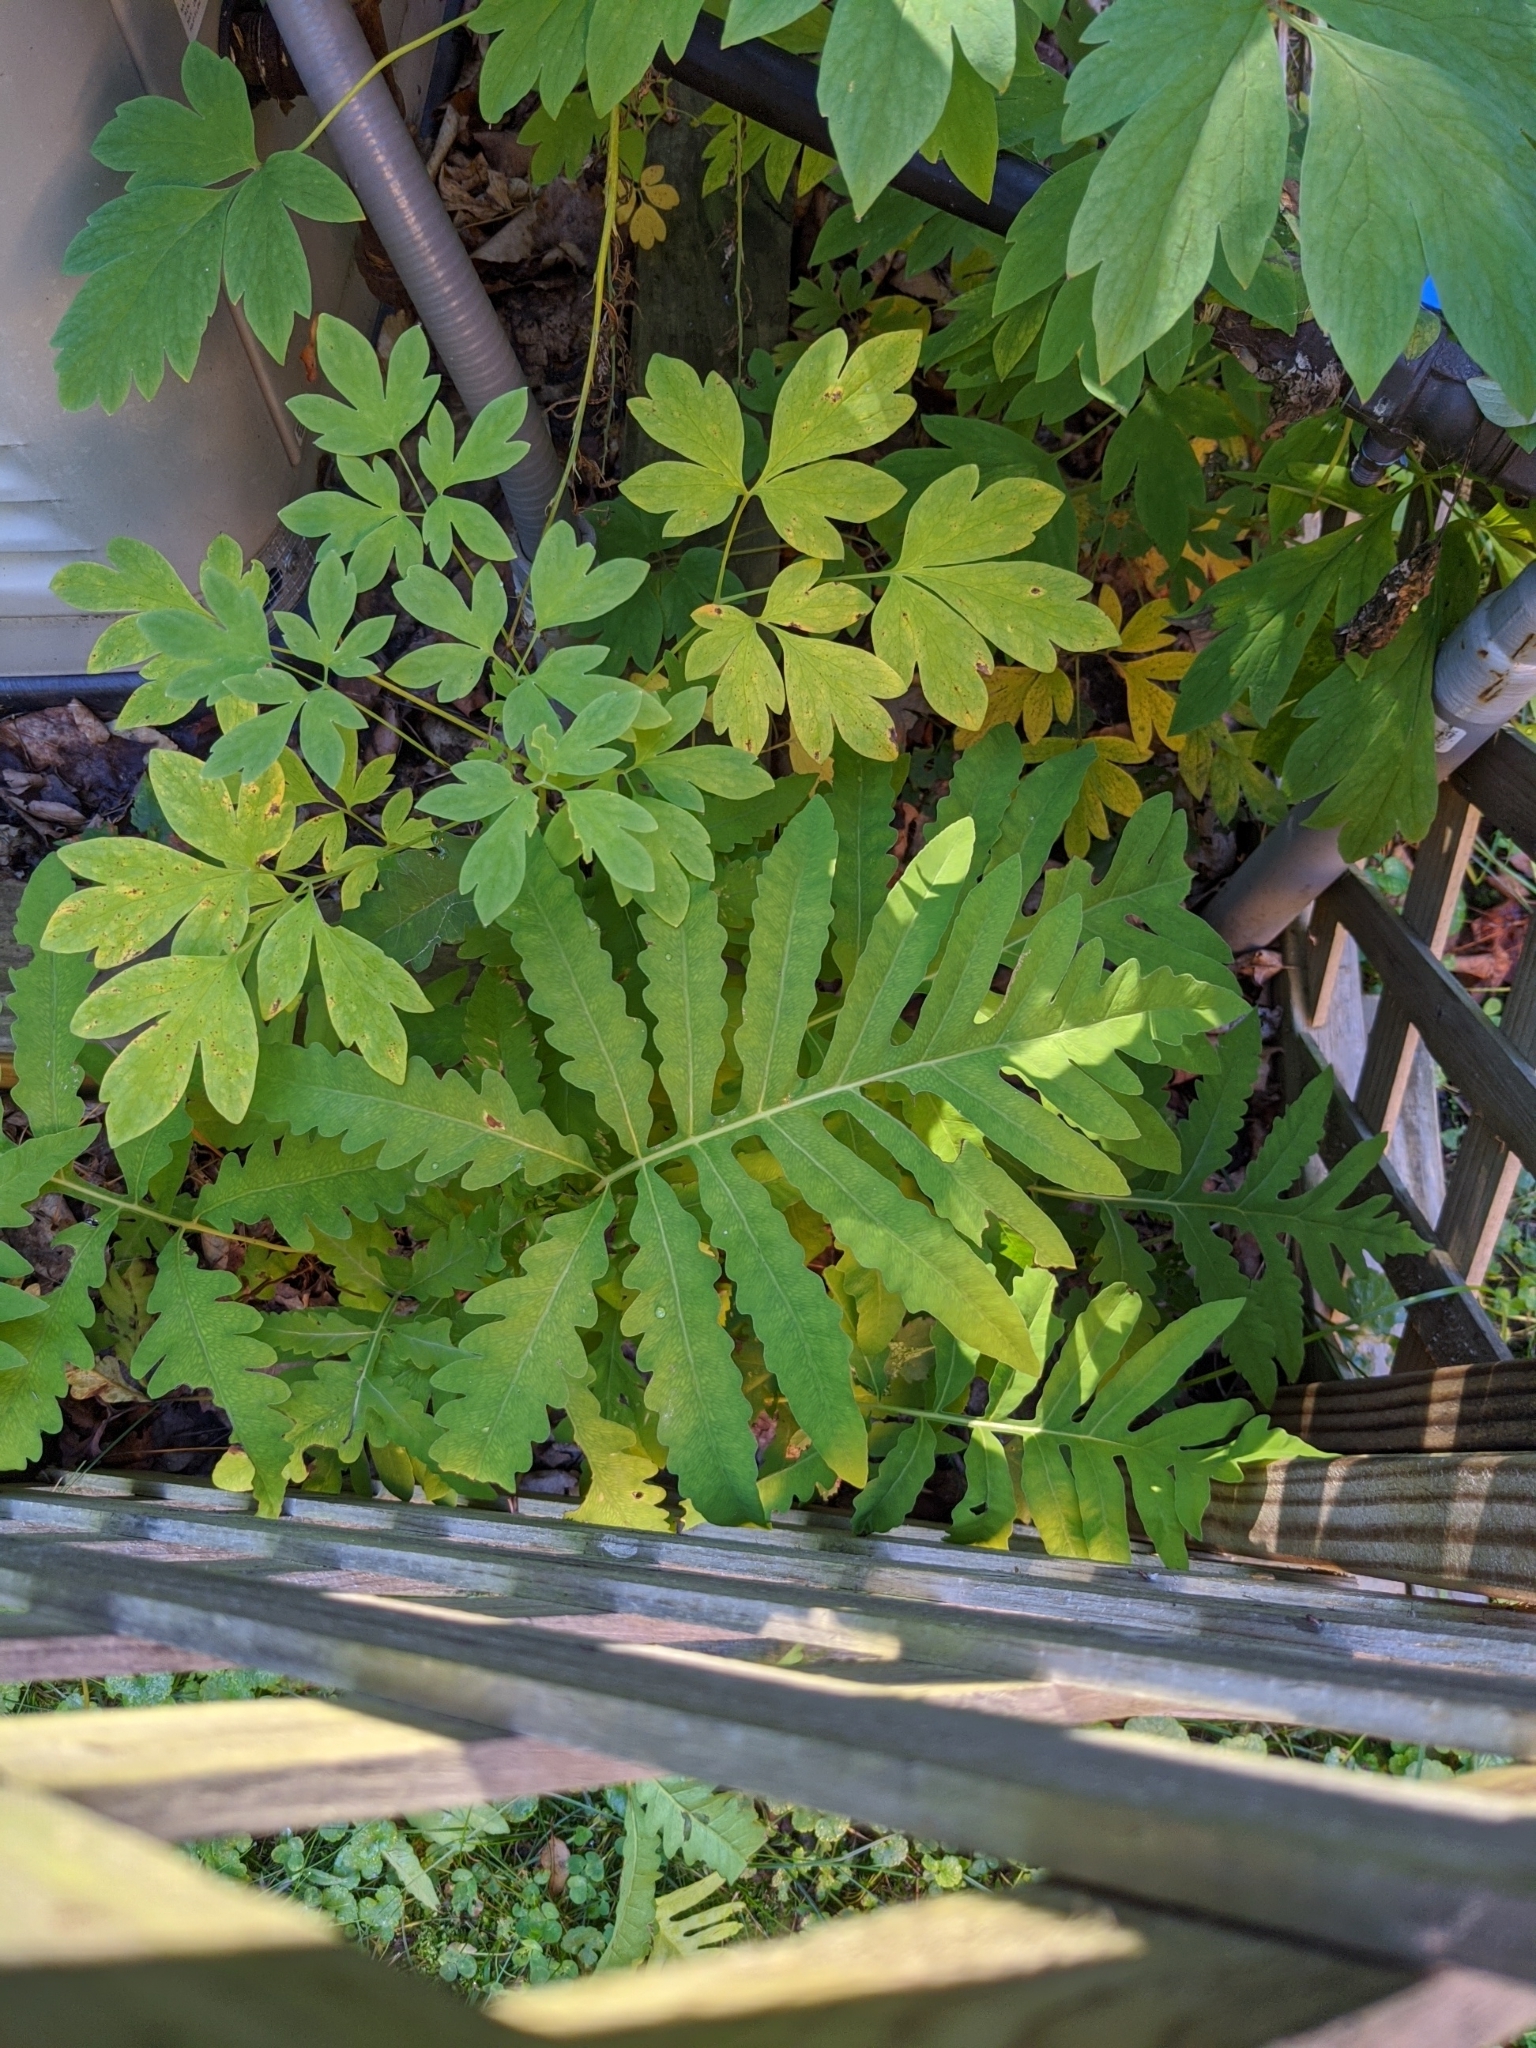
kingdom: Plantae
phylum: Tracheophyta
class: Polypodiopsida
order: Polypodiales
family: Onocleaceae
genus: Onoclea
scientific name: Onoclea sensibilis
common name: Sensitive fern
